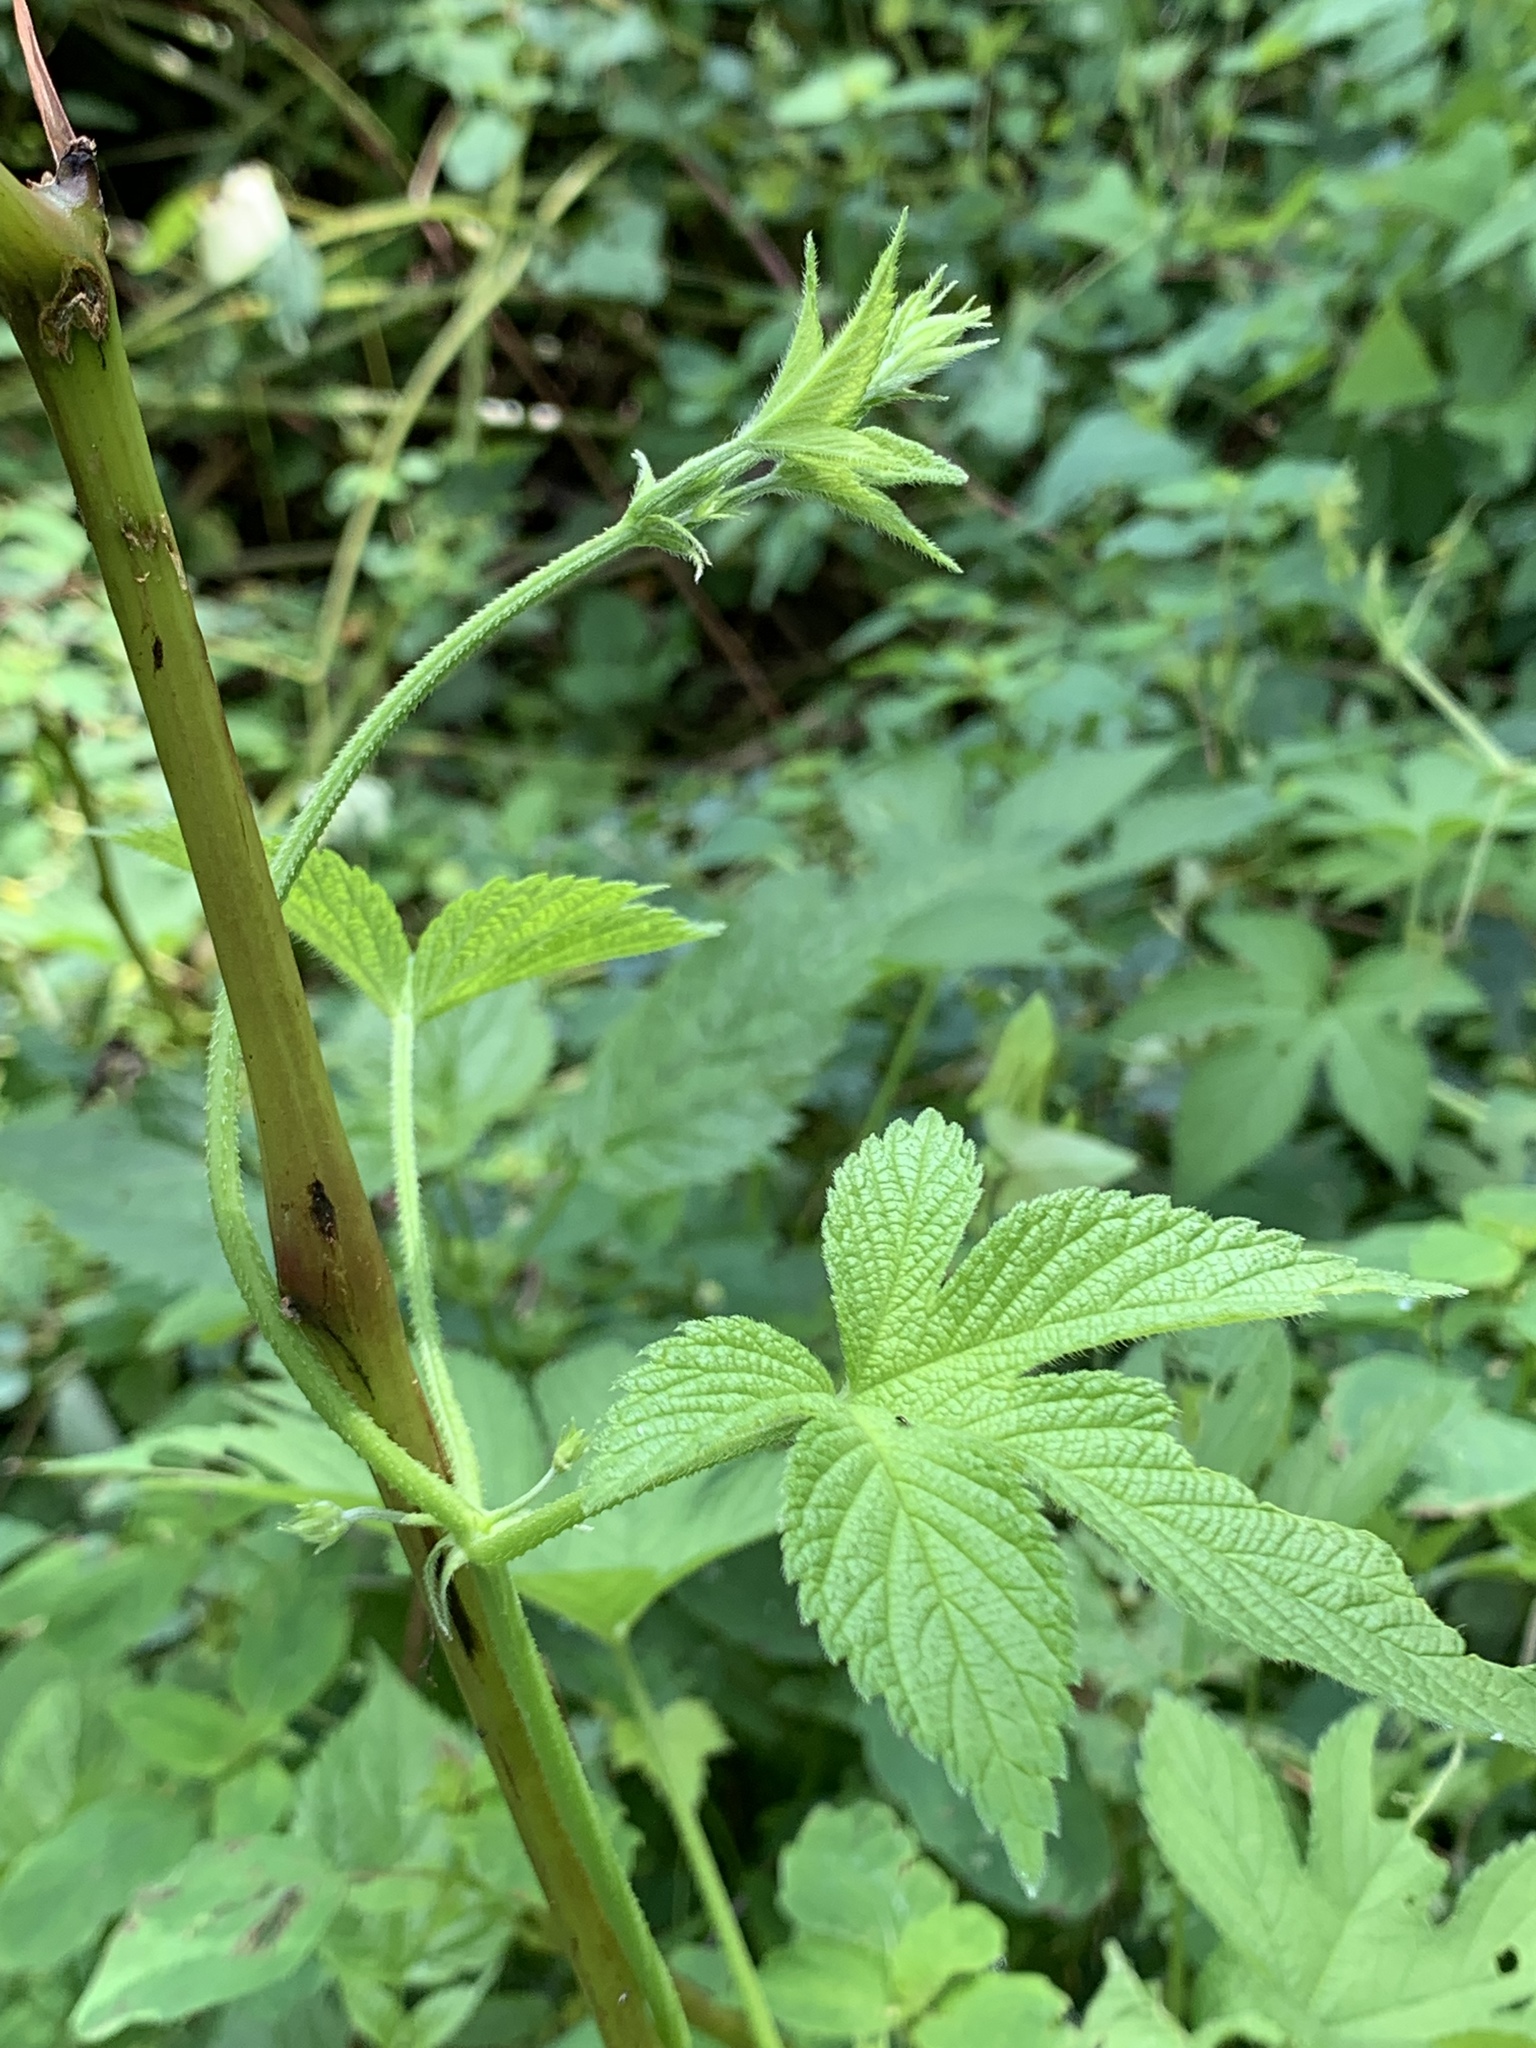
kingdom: Plantae
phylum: Tracheophyta
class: Magnoliopsida
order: Rosales
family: Cannabaceae
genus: Humulus
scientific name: Humulus scandens
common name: Japanese hop
